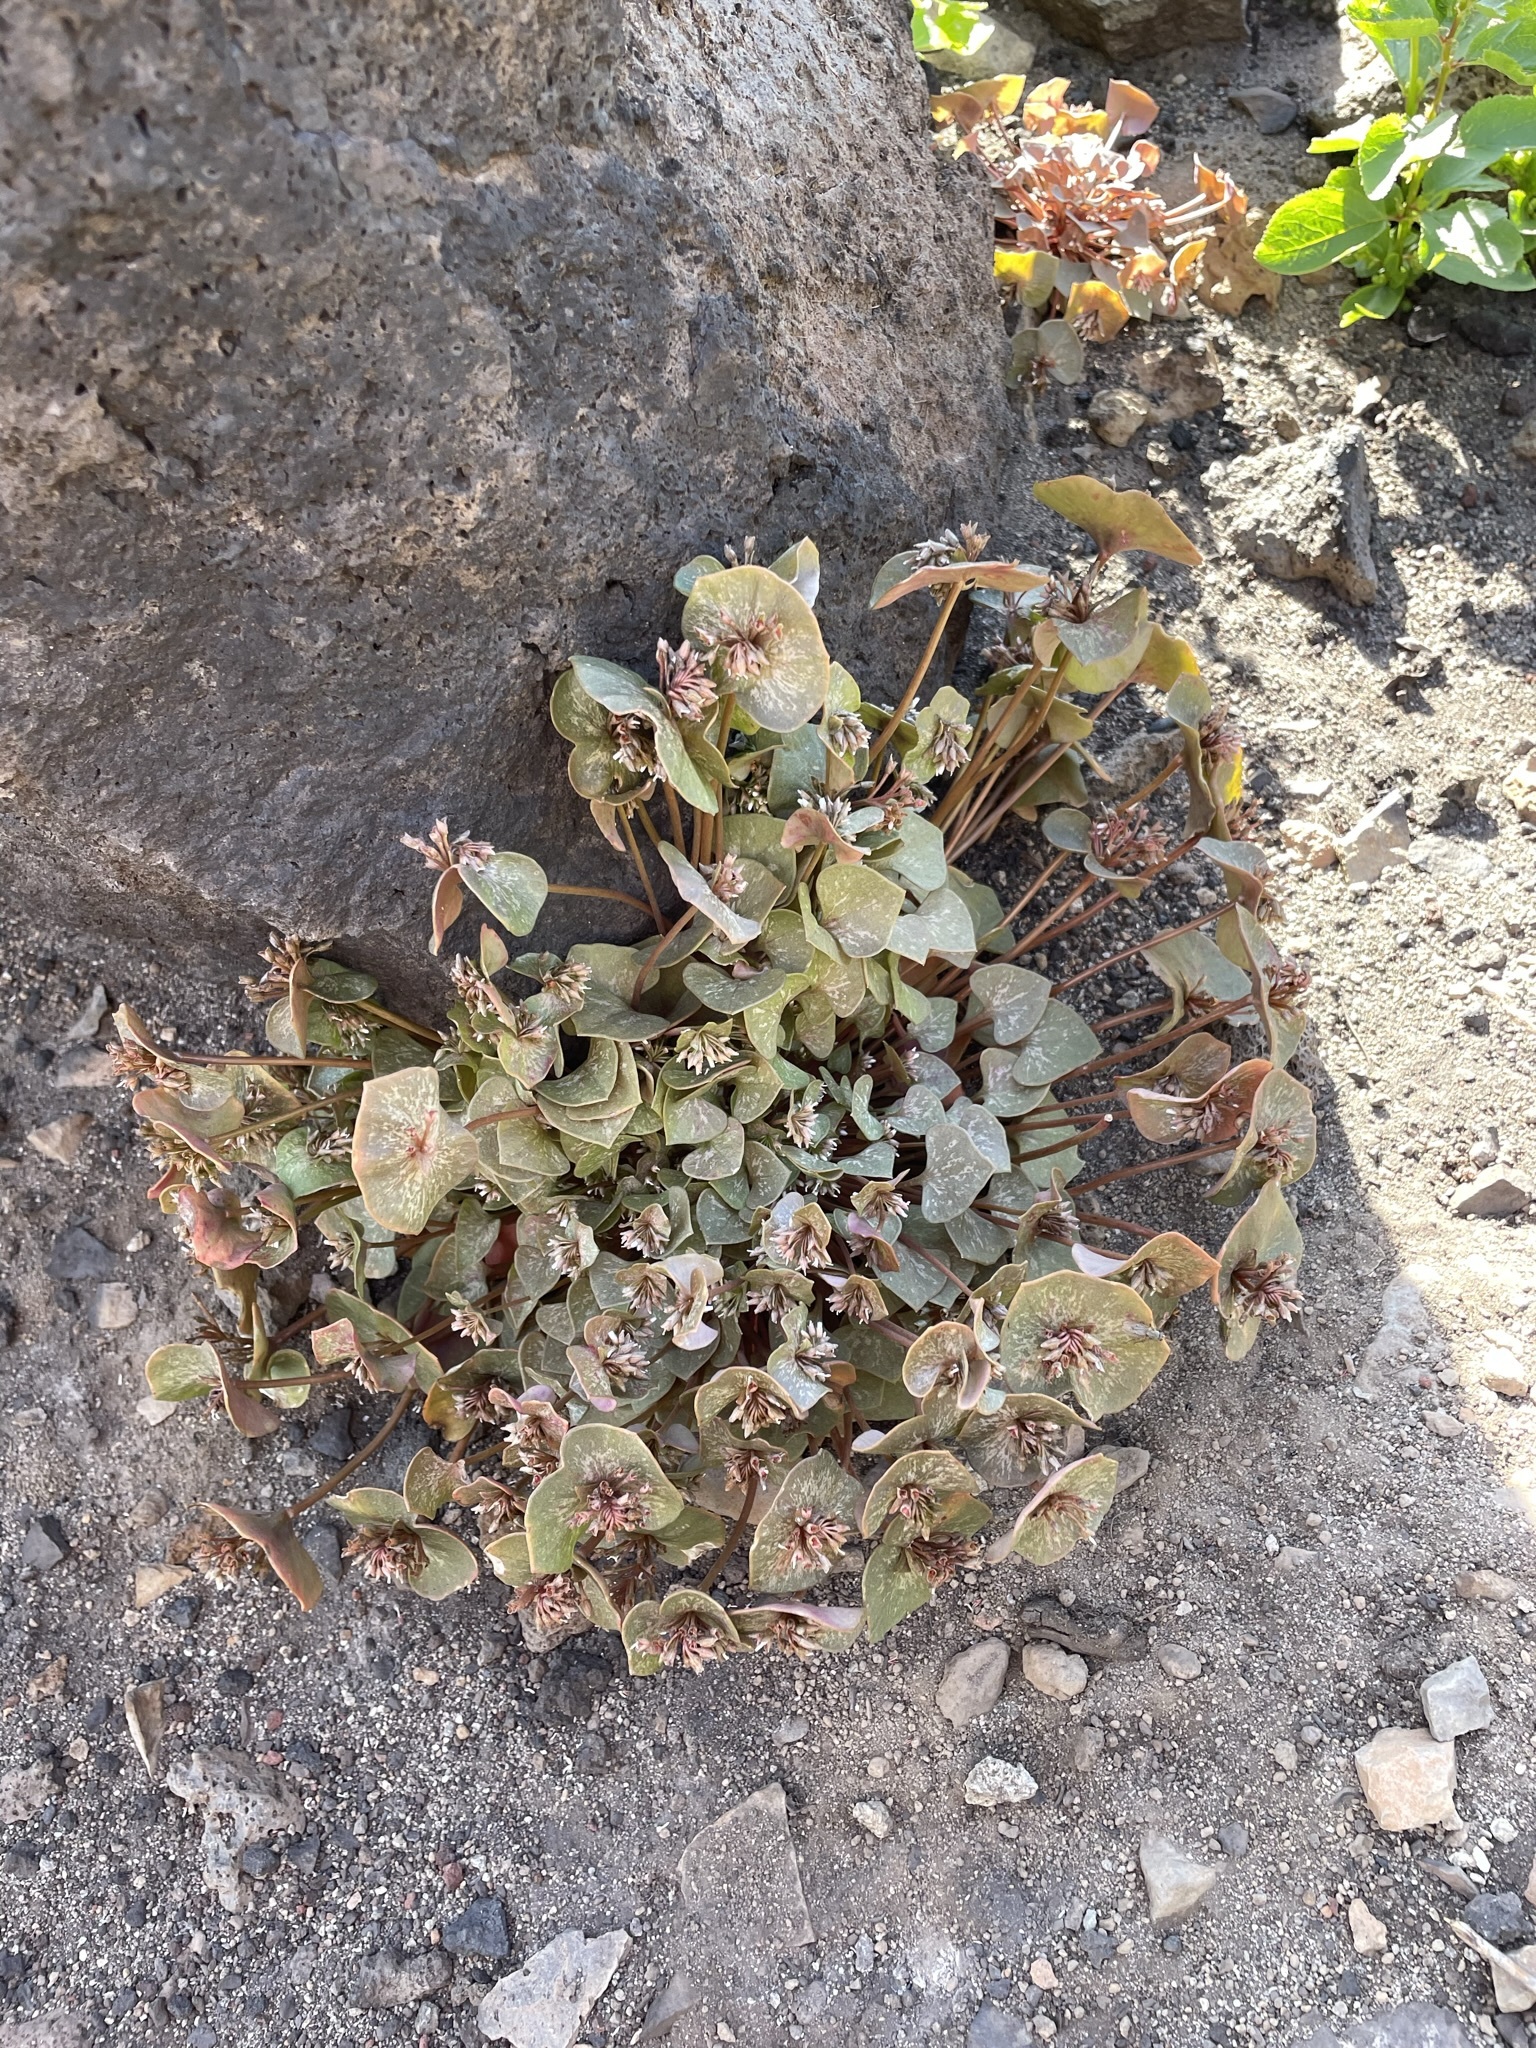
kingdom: Plantae
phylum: Tracheophyta
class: Magnoliopsida
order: Caryophyllales
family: Montiaceae
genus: Claytonia
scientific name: Claytonia rubra
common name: Erubescent miner's-lettuce
